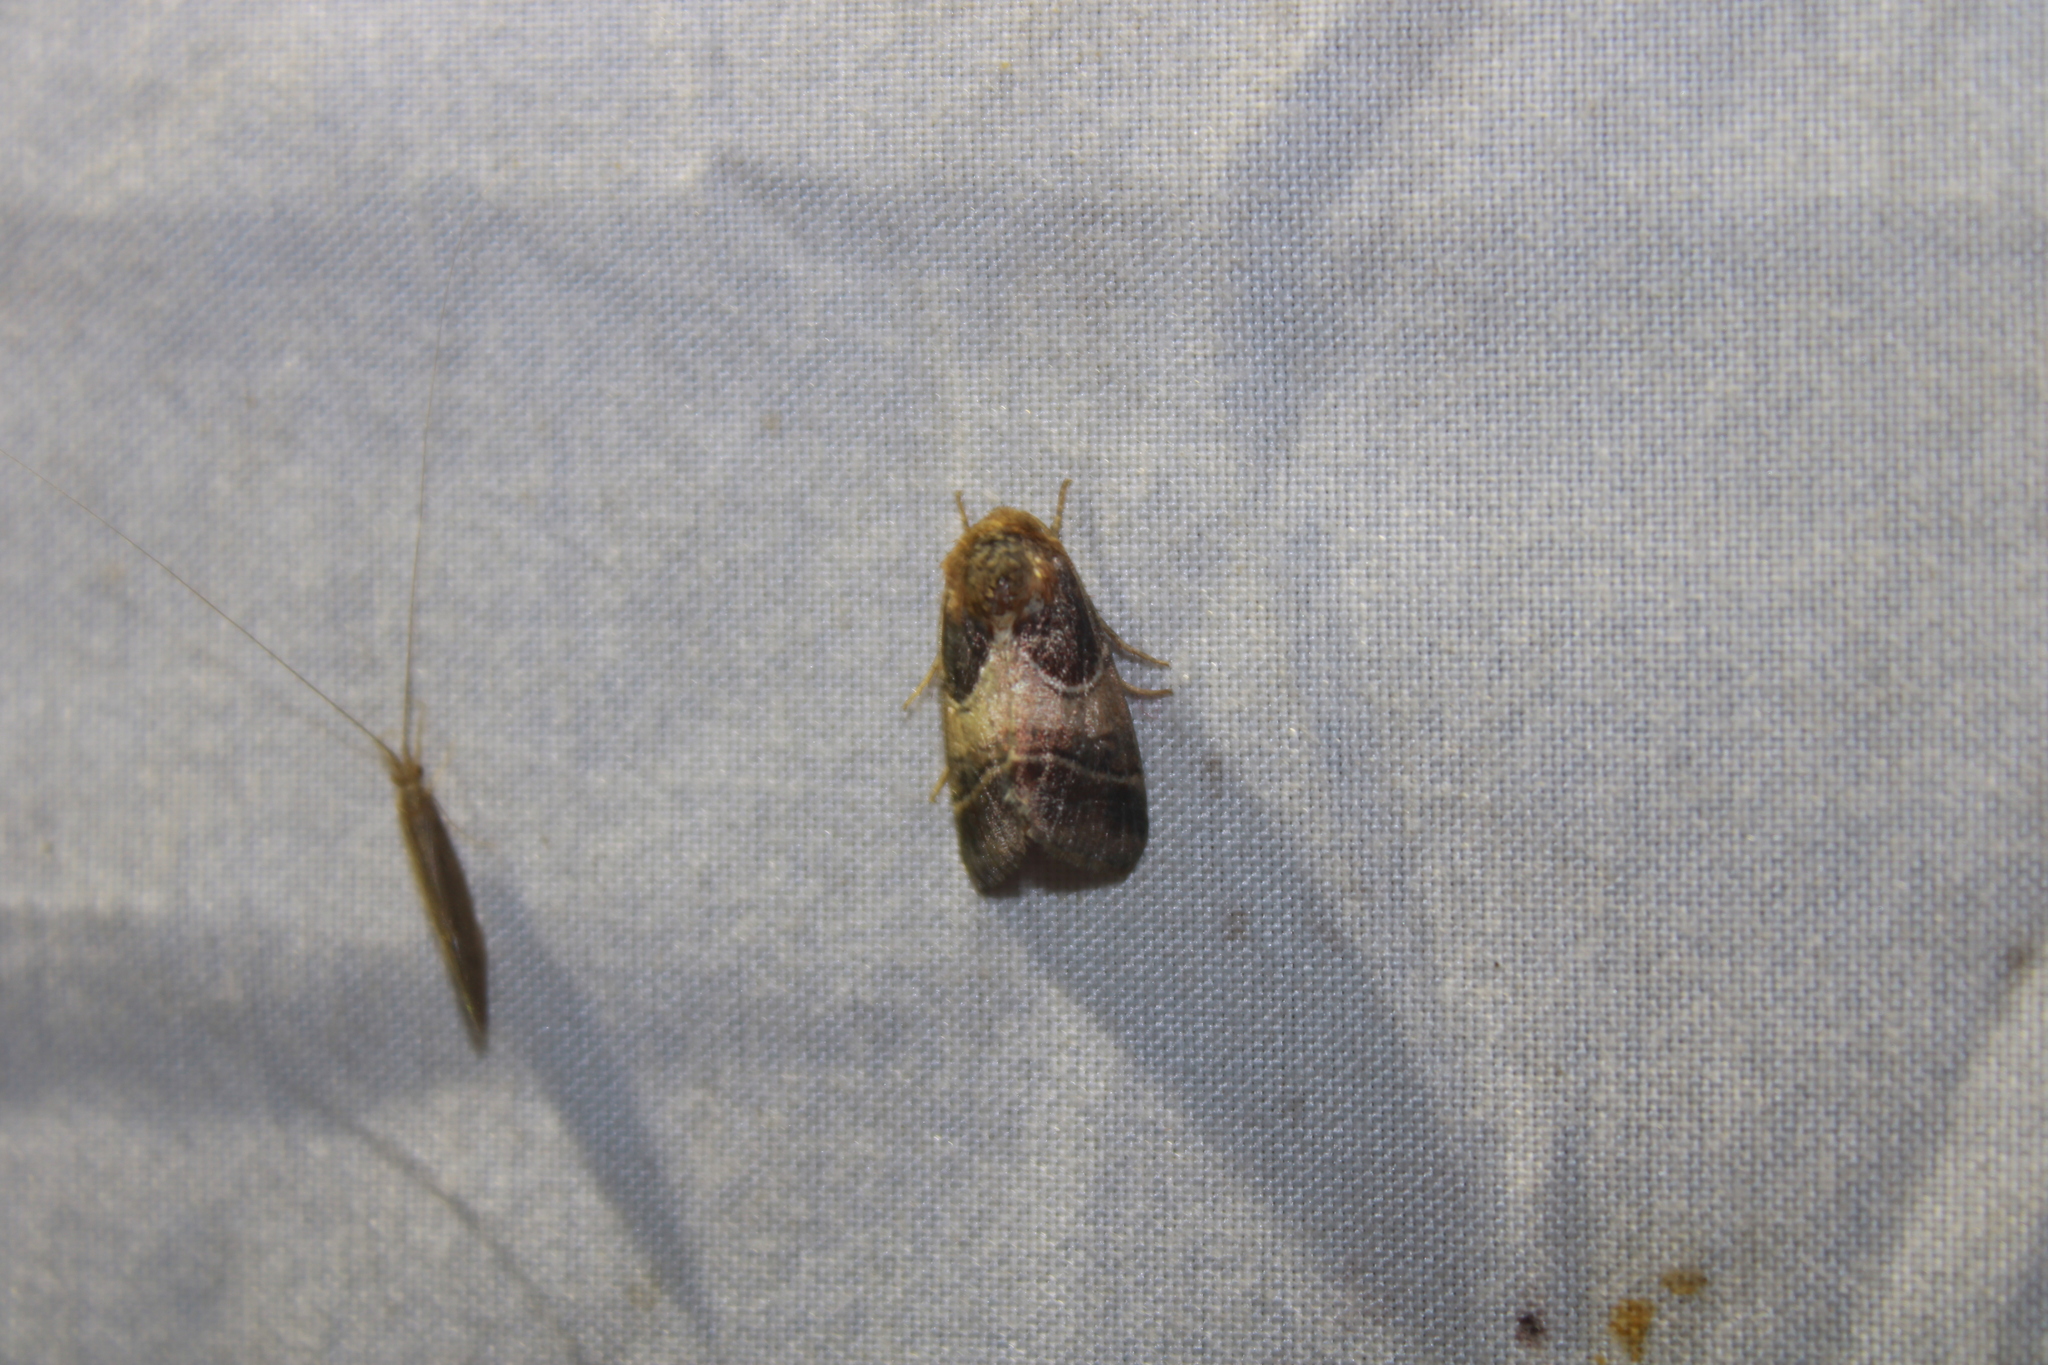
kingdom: Animalia
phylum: Arthropoda
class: Insecta
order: Lepidoptera
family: Noctuidae
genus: Schinia
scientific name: Schinia arcigera
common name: Arcigera flower moth
